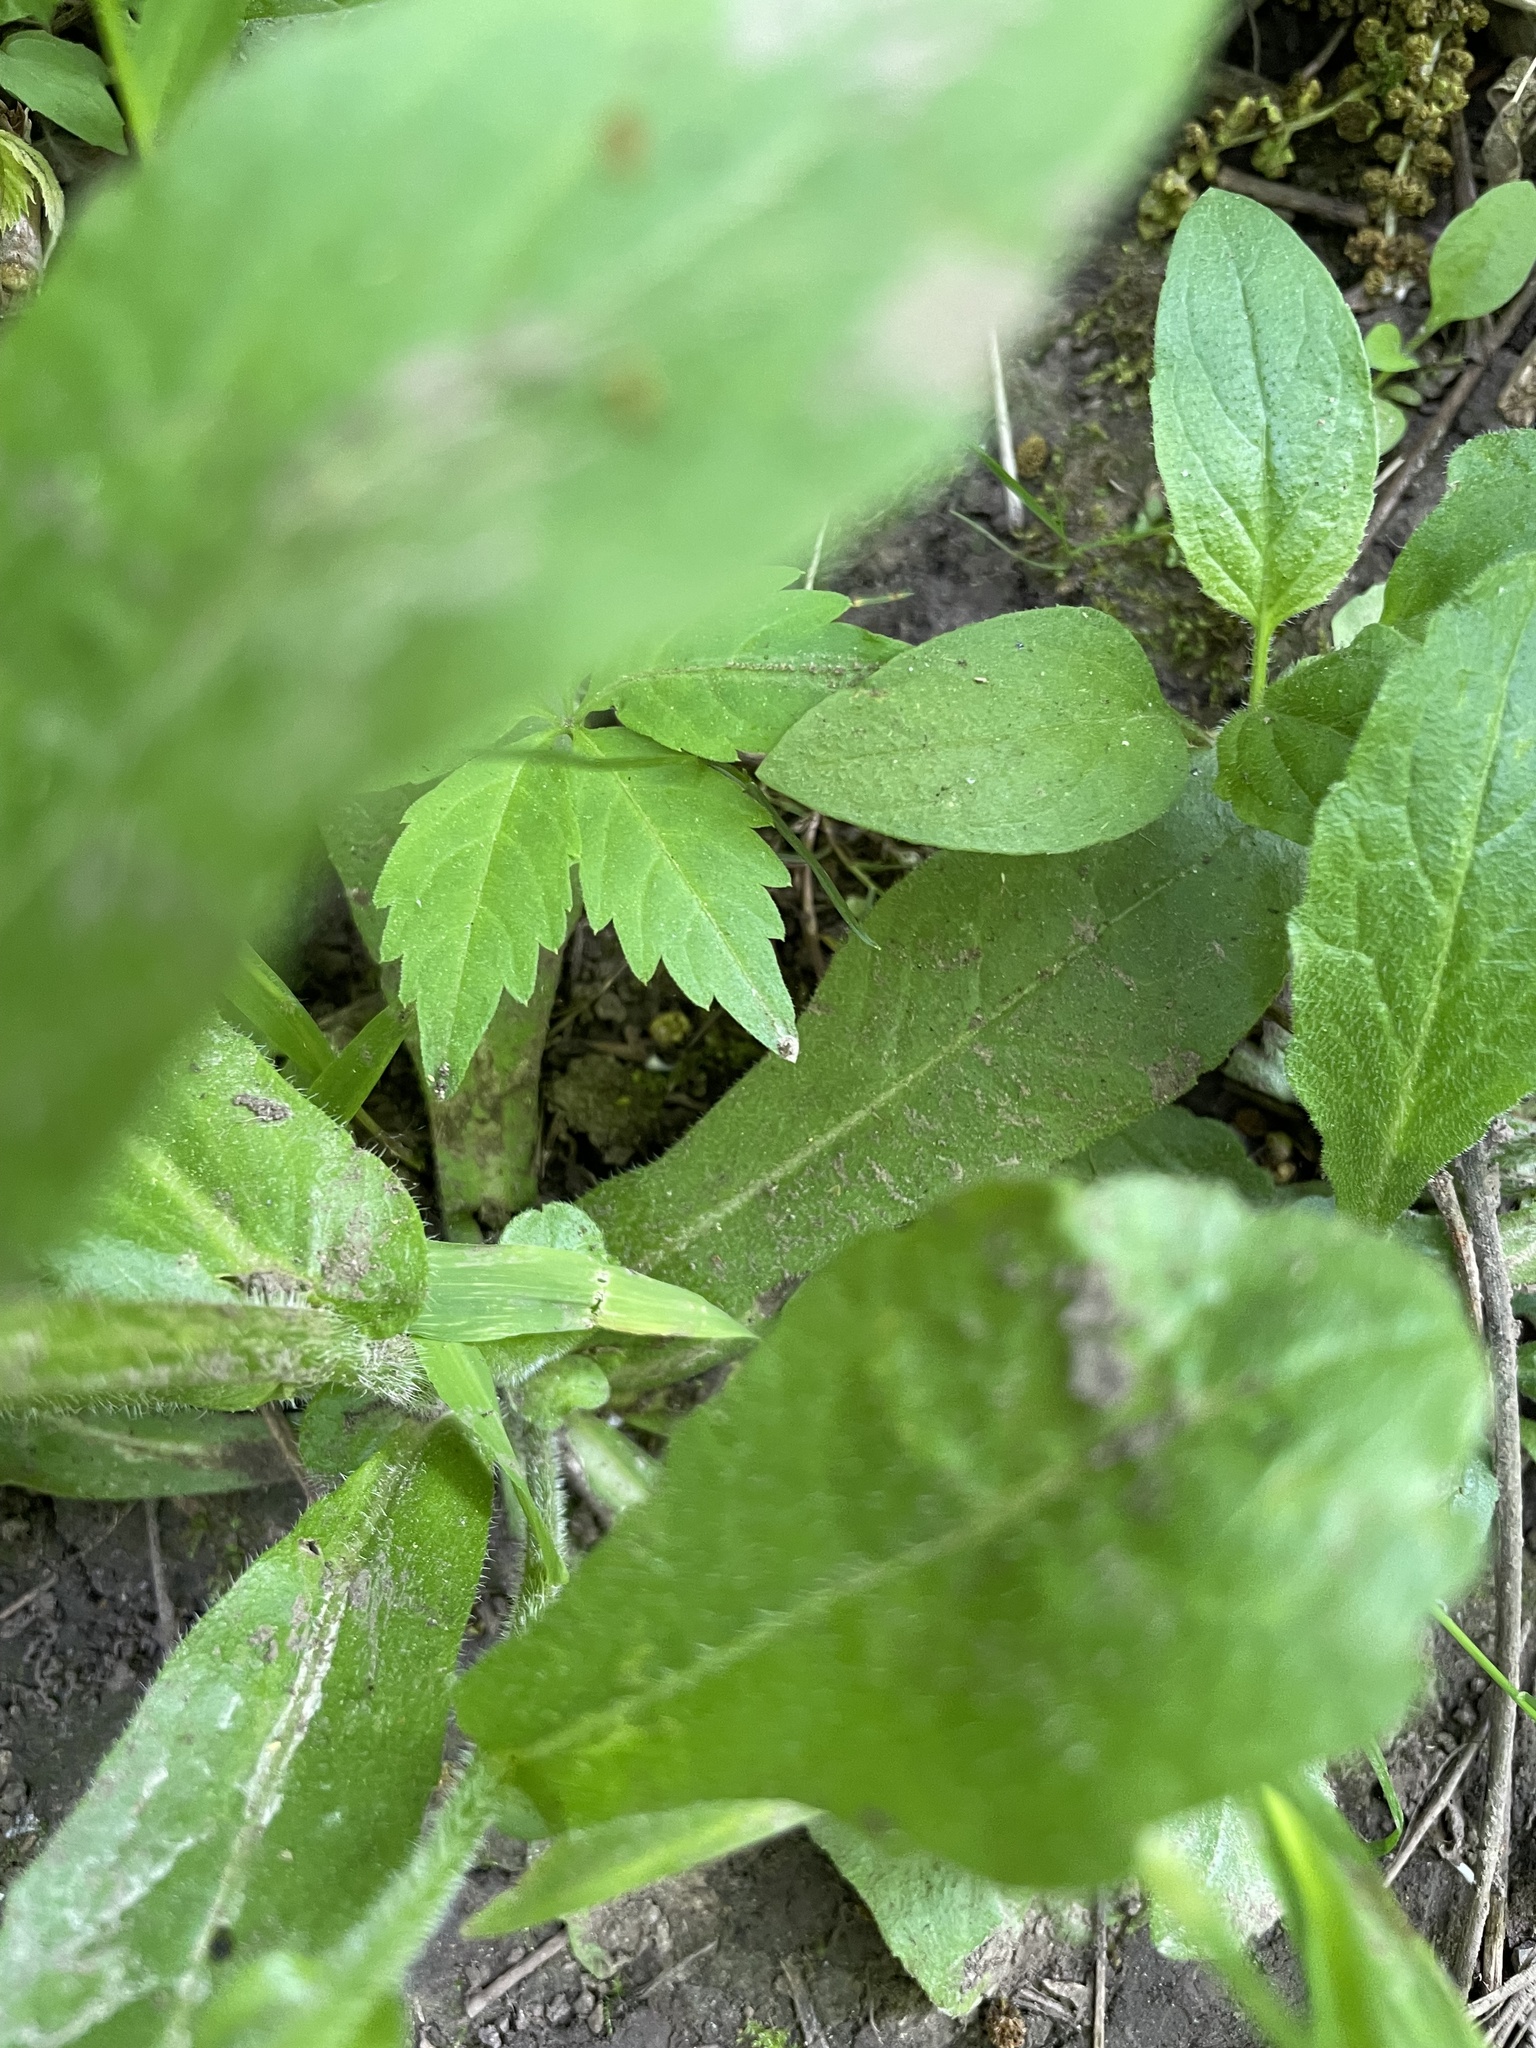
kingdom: Plantae
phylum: Tracheophyta
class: Magnoliopsida
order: Asterales
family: Asteraceae
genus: Erigeron
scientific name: Erigeron philadelphicus
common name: Robin's-plantain
